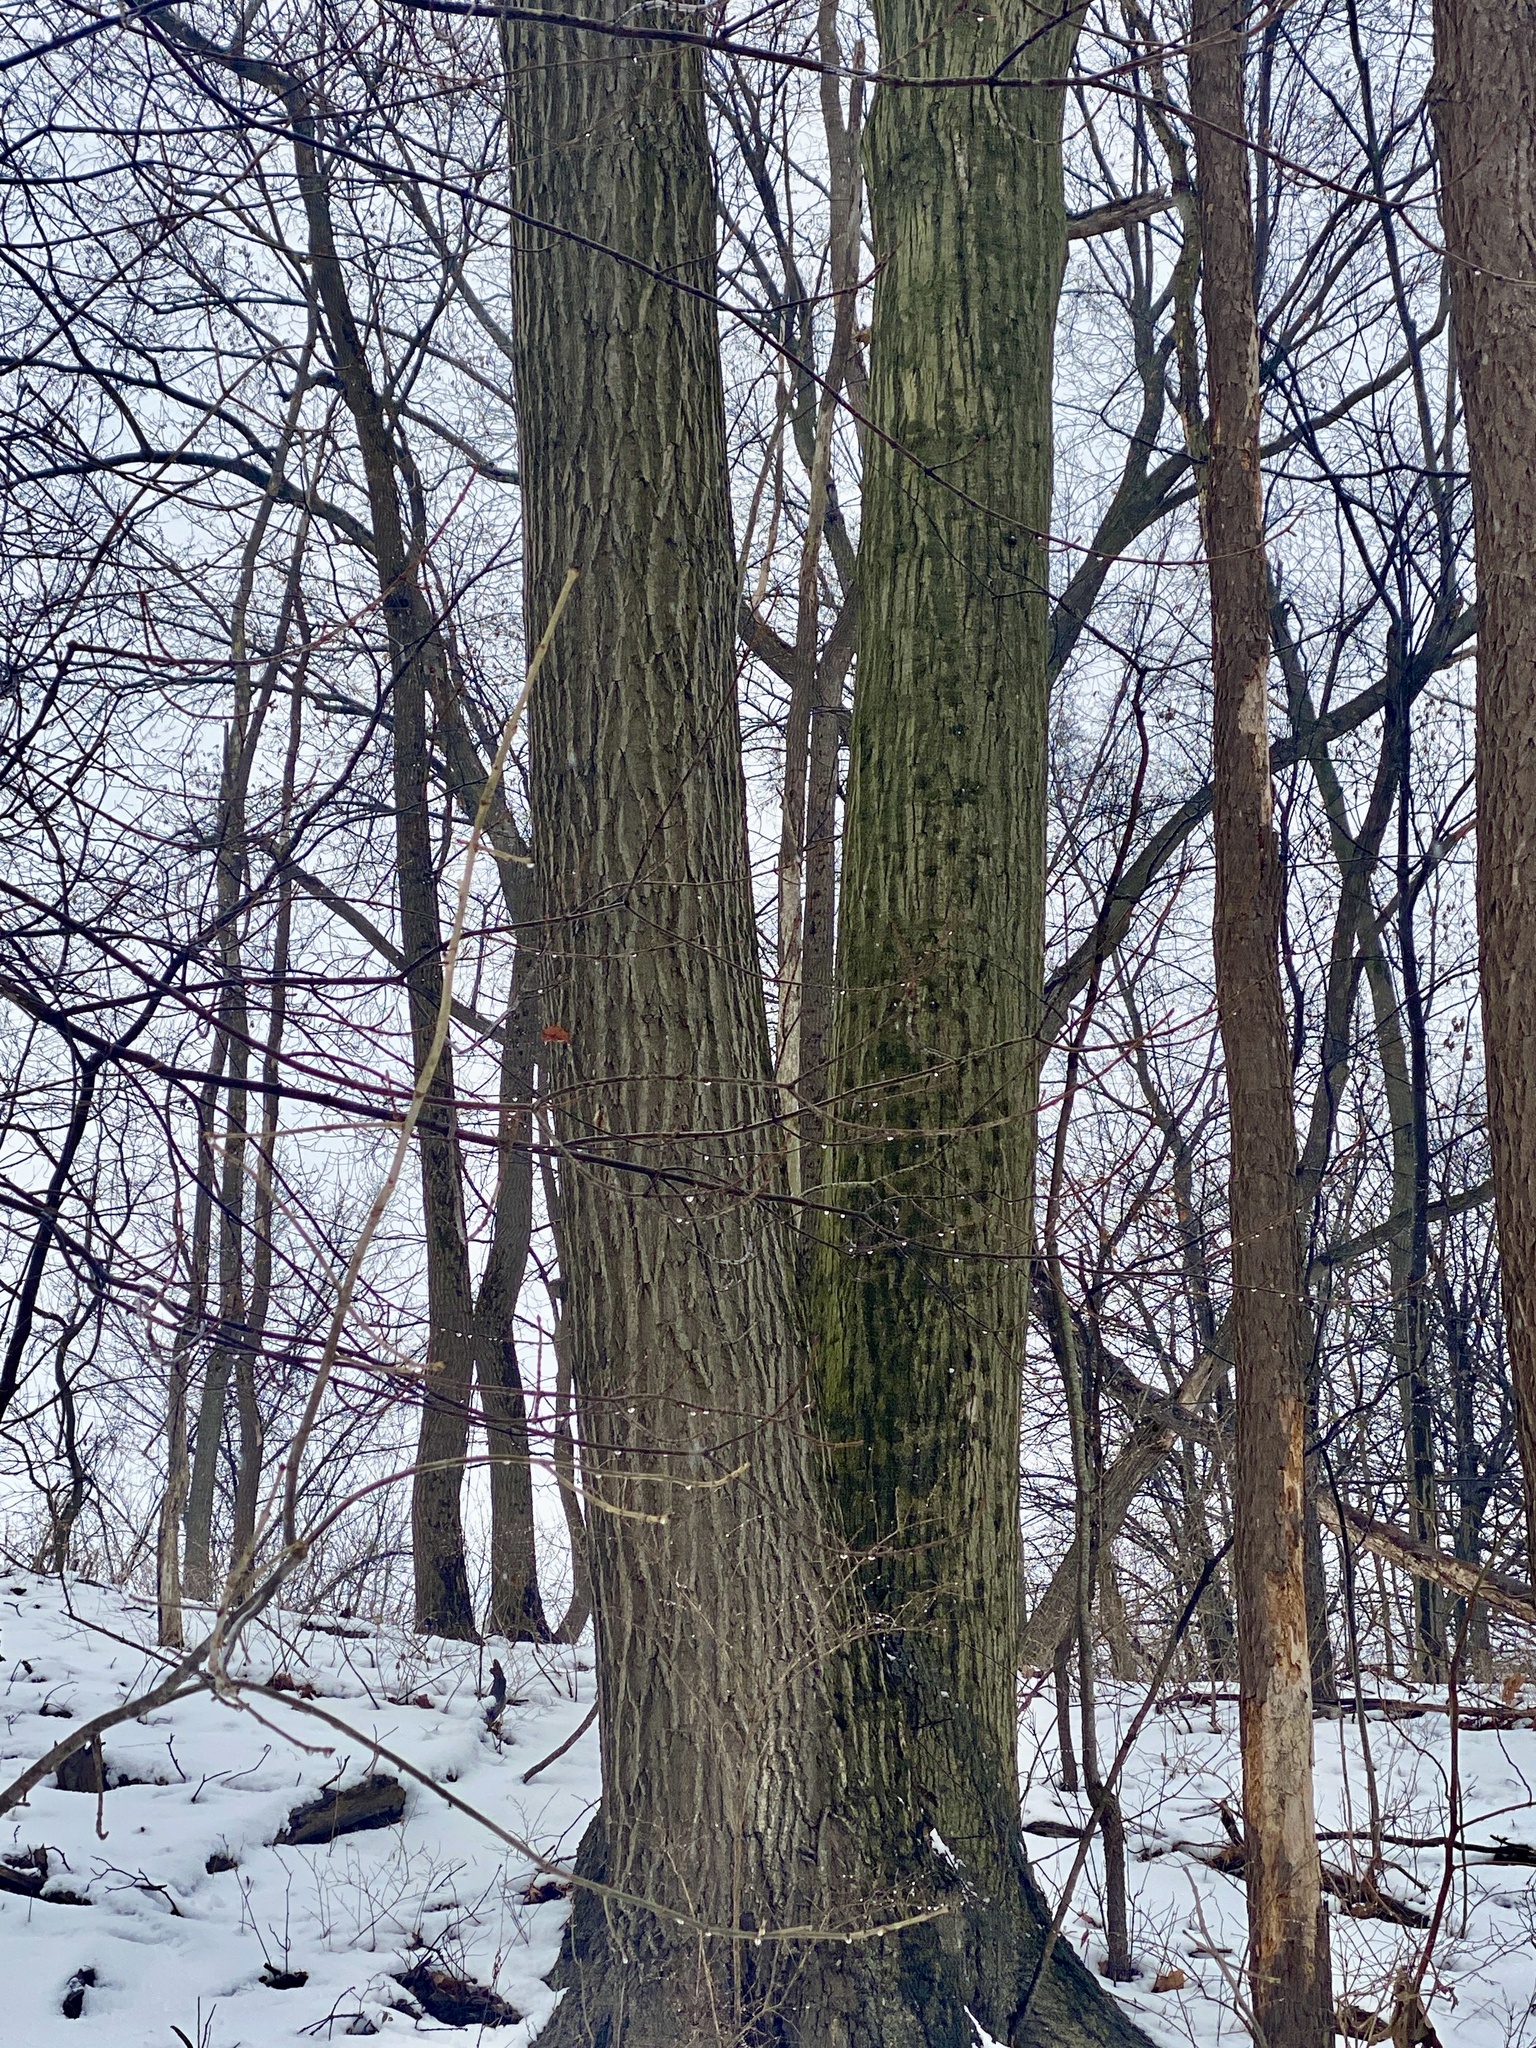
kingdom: Plantae
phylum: Tracheophyta
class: Magnoliopsida
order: Fagales
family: Fagaceae
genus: Quercus
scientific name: Quercus rubra
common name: Red oak
